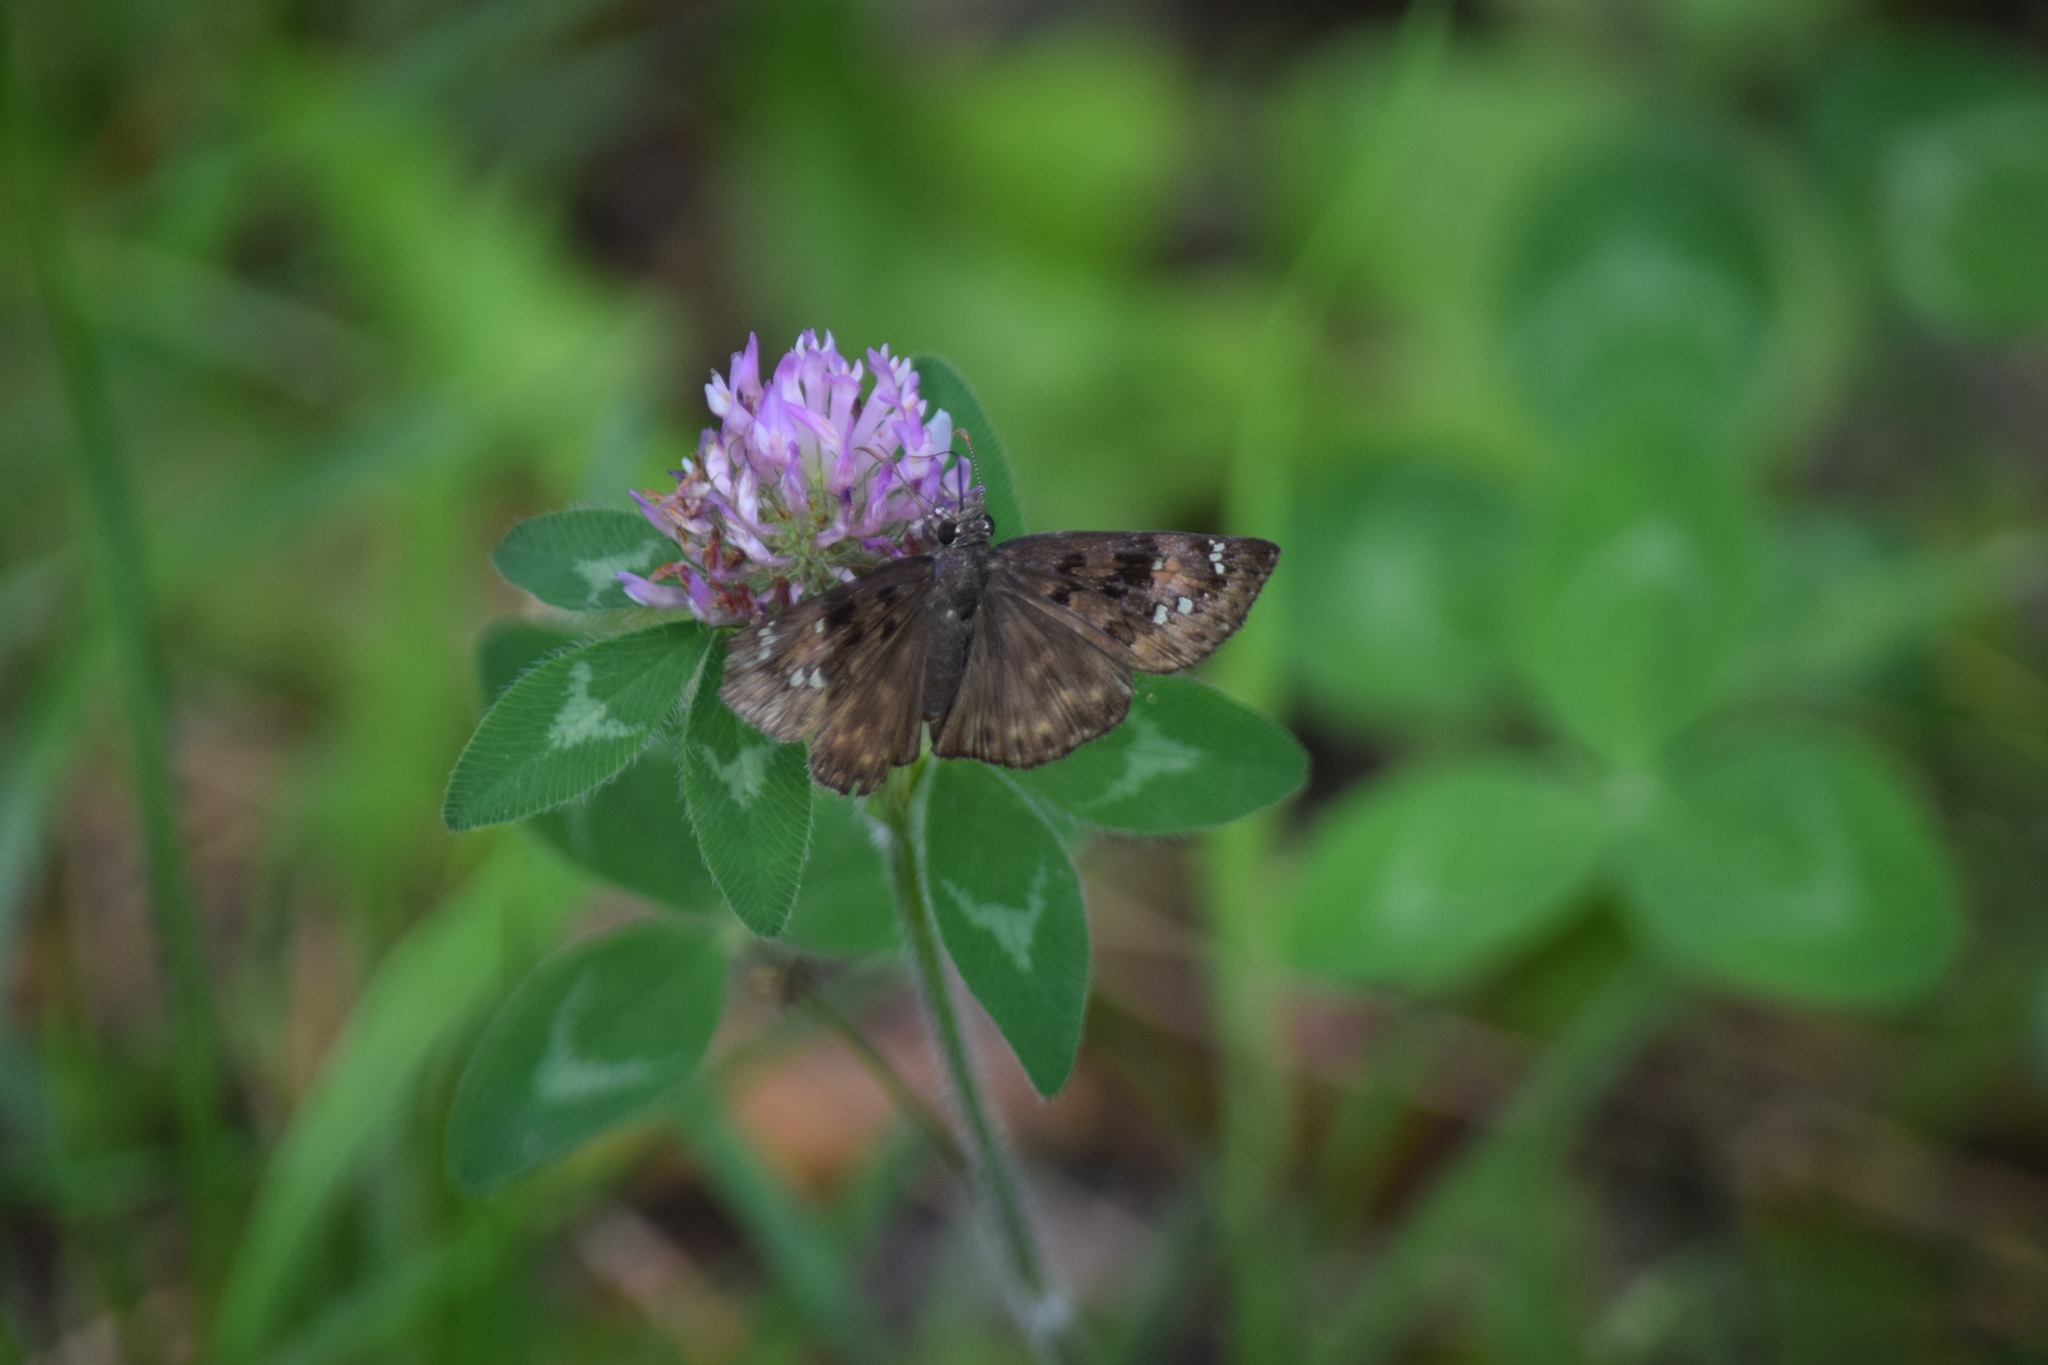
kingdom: Animalia
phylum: Arthropoda
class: Insecta
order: Lepidoptera
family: Hesperiidae
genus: Erynnis
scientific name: Erynnis horatius
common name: Horace's duskywing
